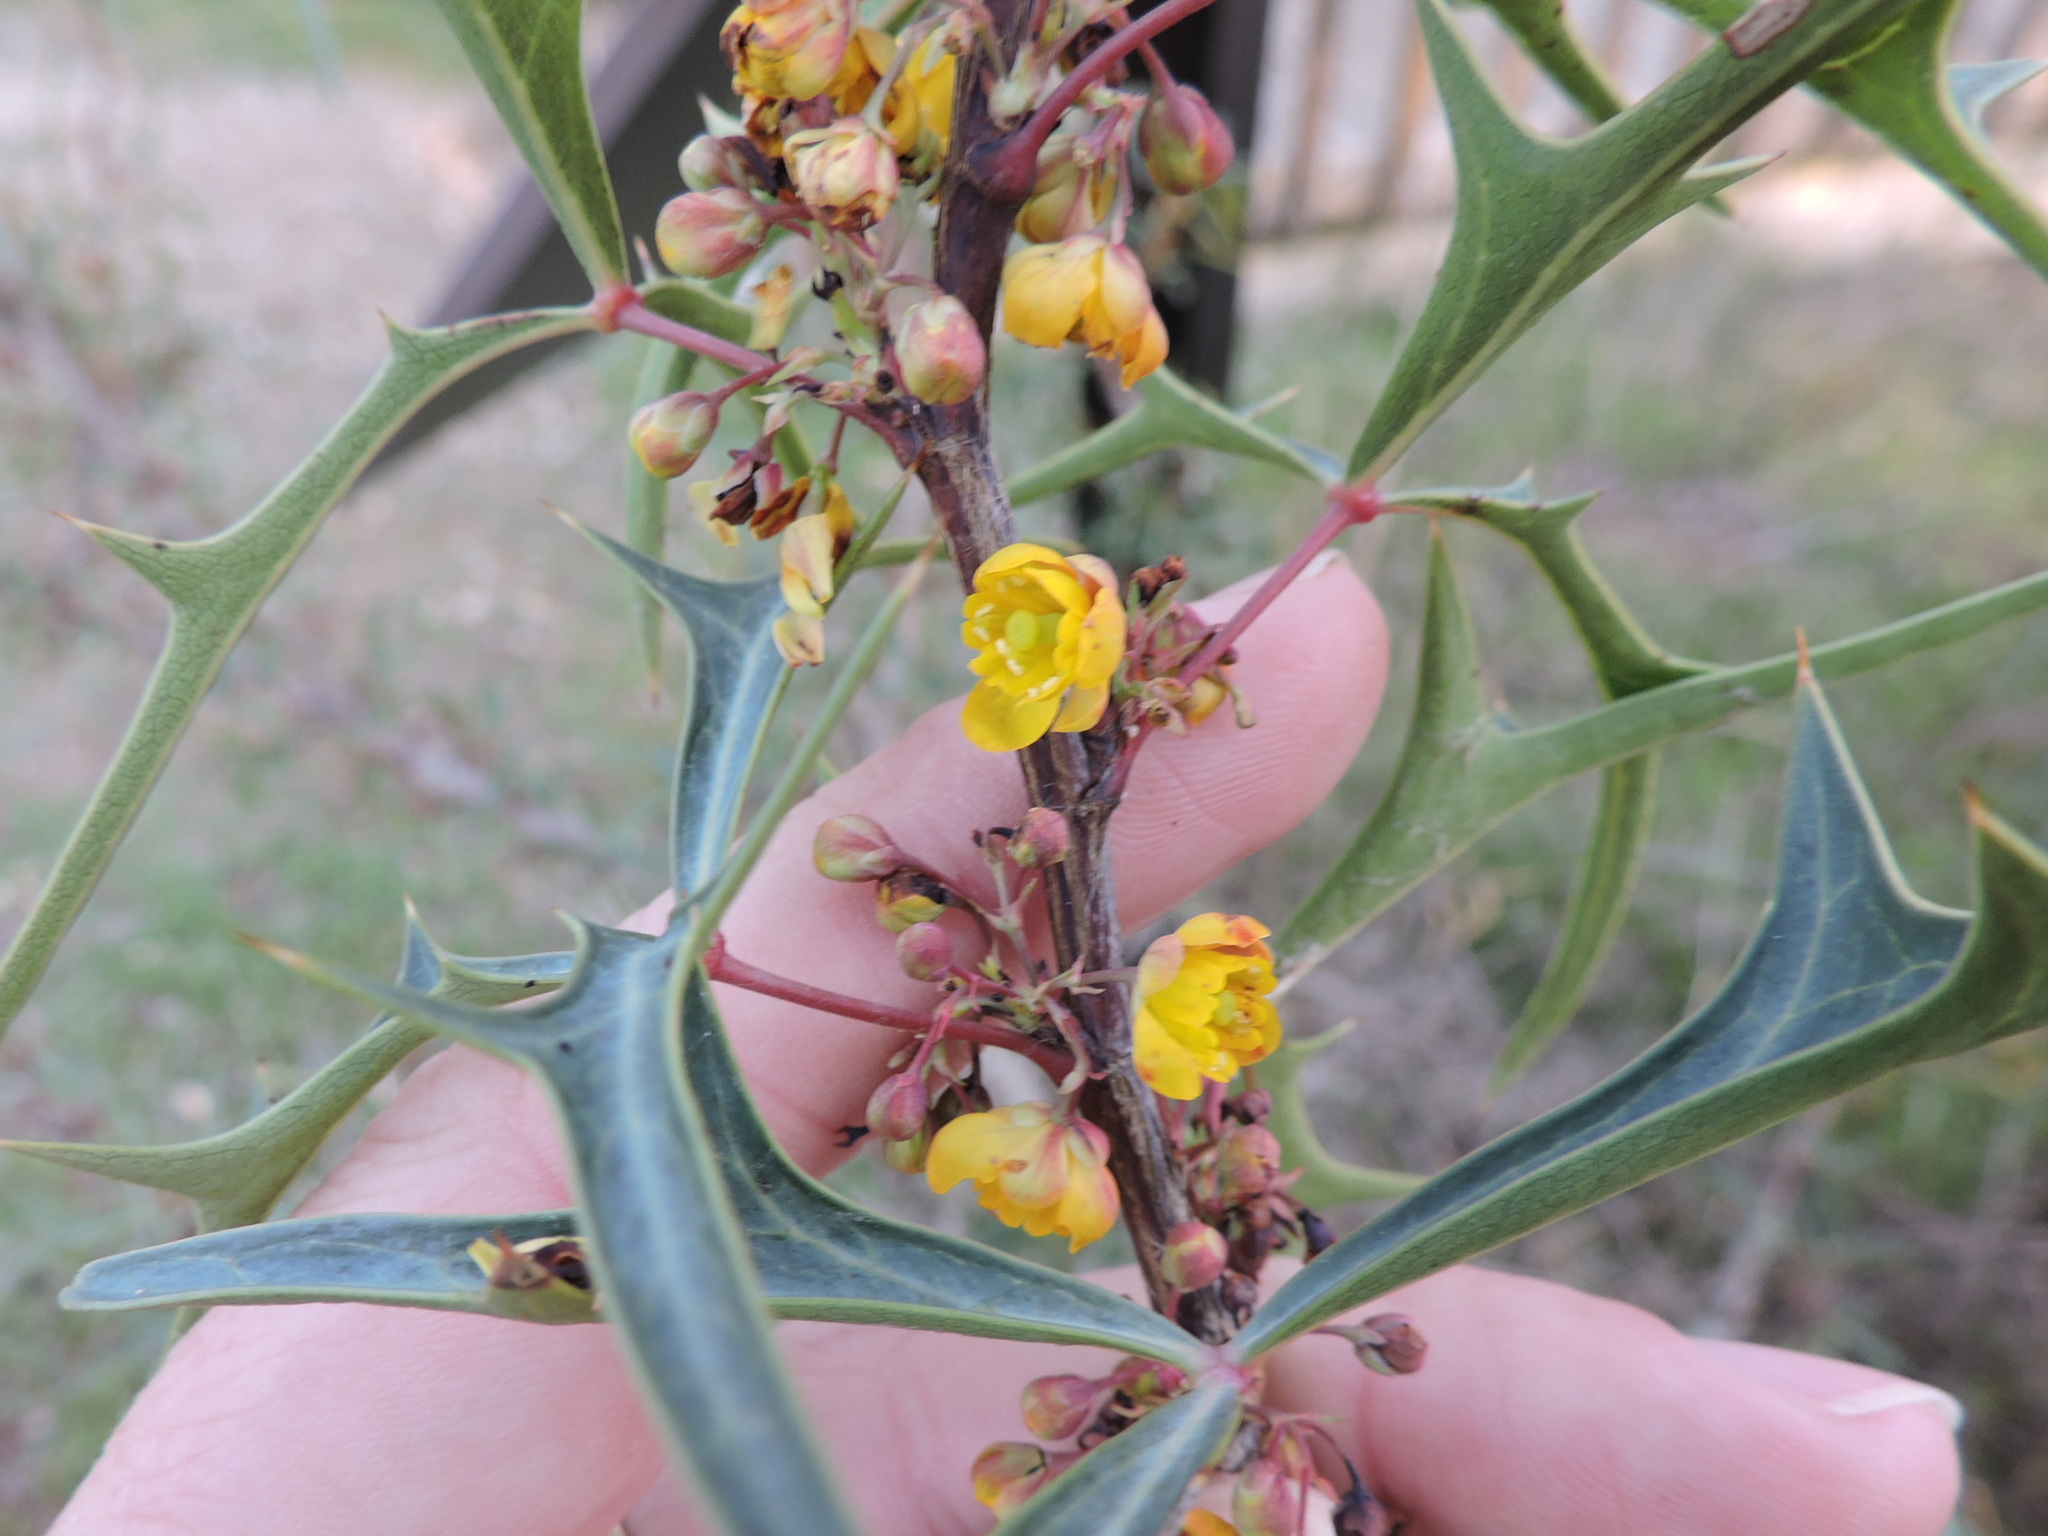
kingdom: Plantae
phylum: Tracheophyta
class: Magnoliopsida
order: Ranunculales
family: Berberidaceae
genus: Alloberberis
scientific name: Alloberberis trifoliolata
